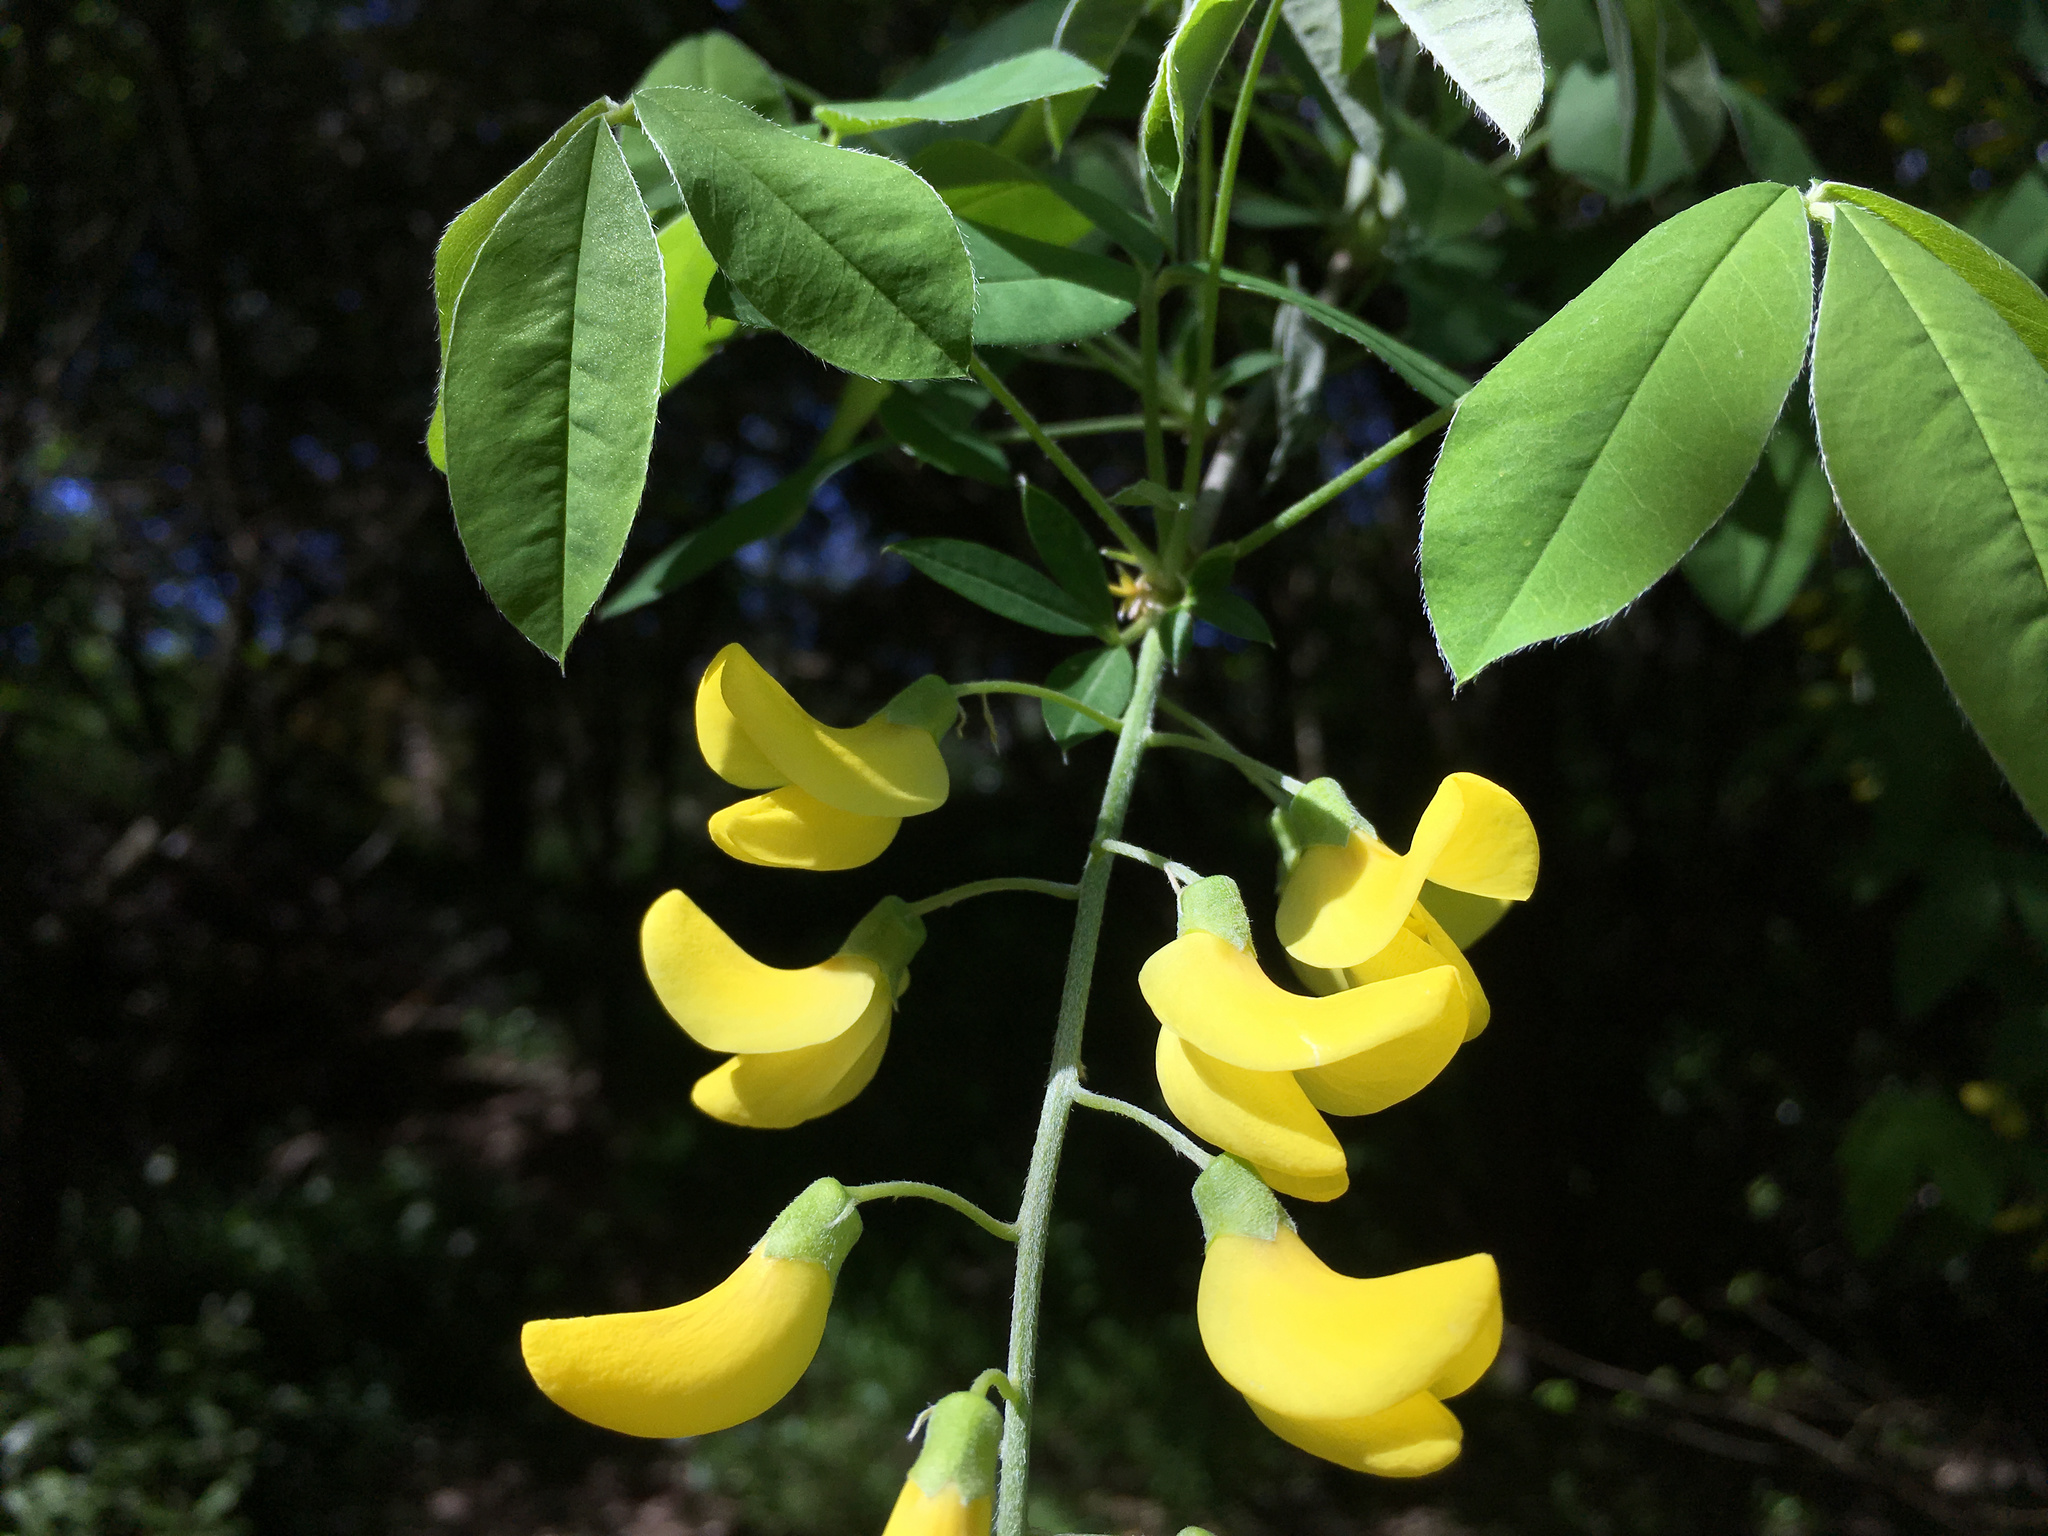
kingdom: Plantae
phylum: Tracheophyta
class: Magnoliopsida
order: Fabales
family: Fabaceae
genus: Laburnum
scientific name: Laburnum anagyroides
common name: Laburnum
